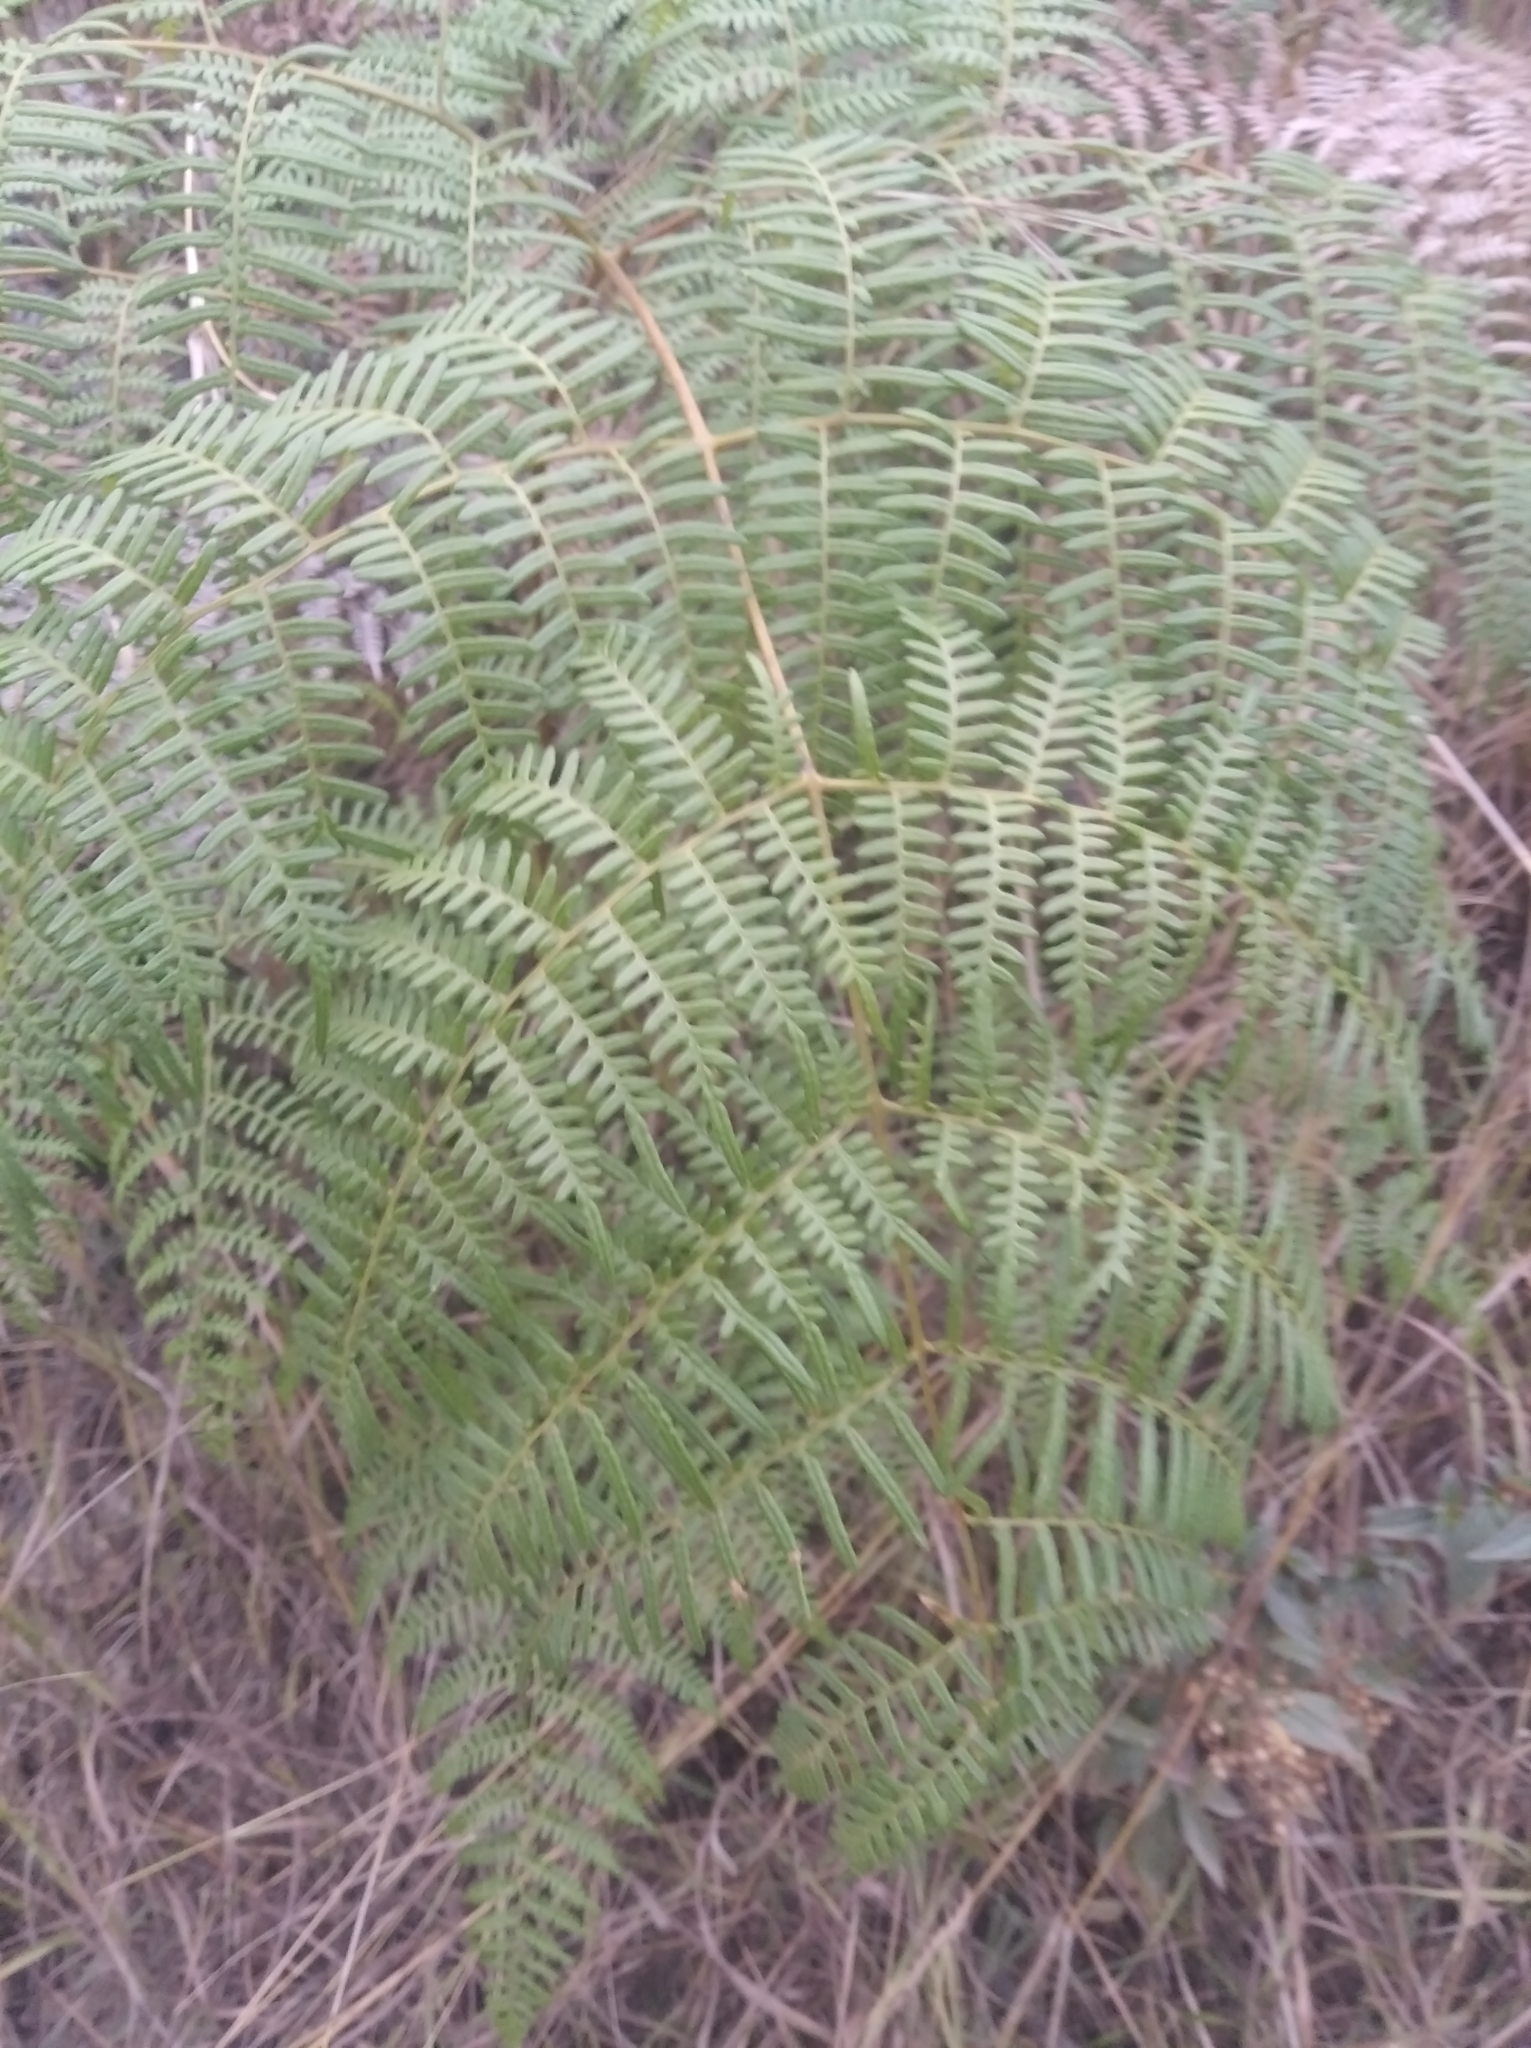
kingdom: Plantae
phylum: Tracheophyta
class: Polypodiopsida
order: Polypodiales
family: Dennstaedtiaceae
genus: Pteridium
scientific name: Pteridium esculentum
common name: Bracken fern
